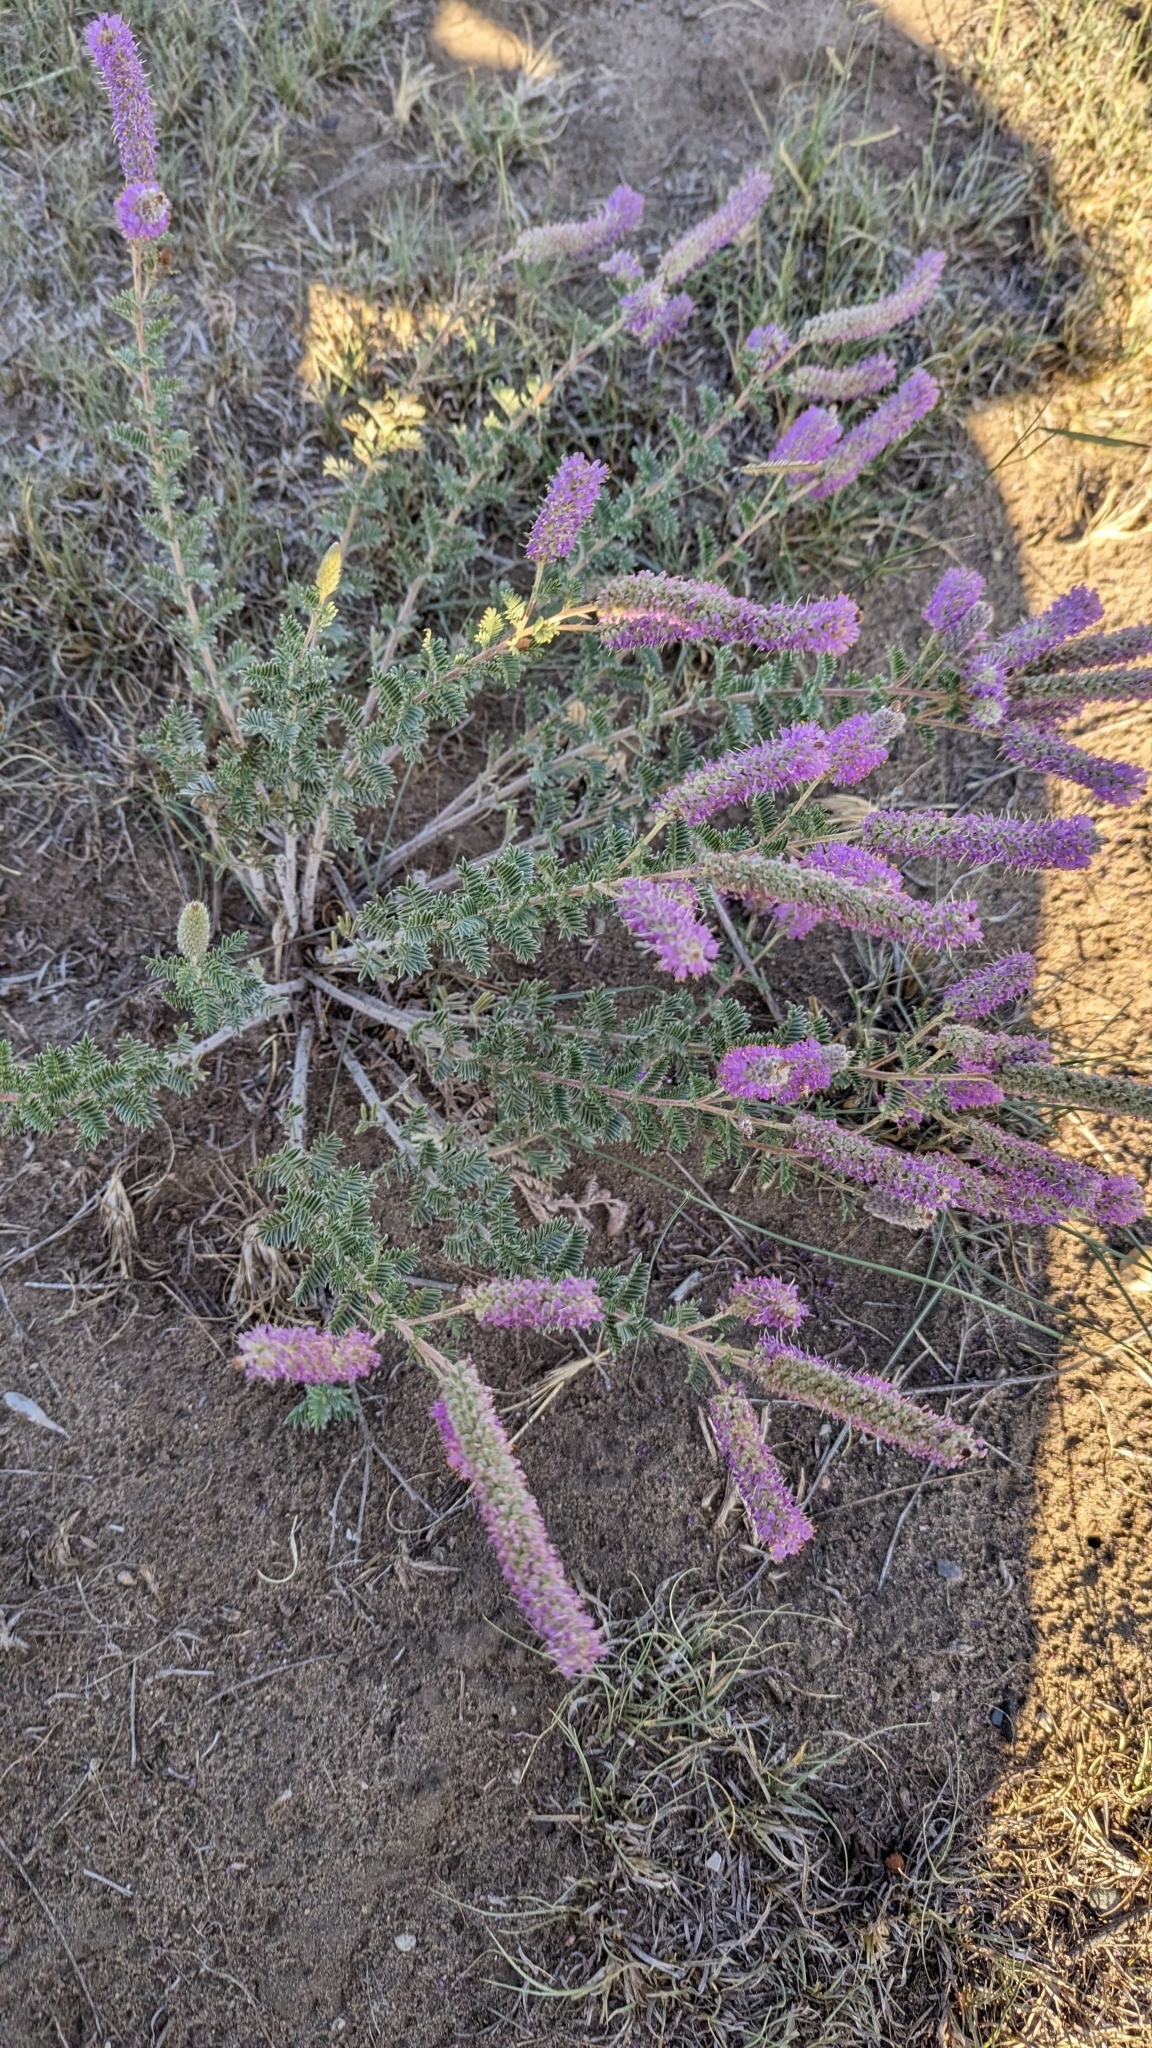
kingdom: Plantae
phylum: Tracheophyta
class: Magnoliopsida
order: Fabales
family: Fabaceae
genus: Dalea
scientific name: Dalea villosa
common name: Silky prairie-clover
